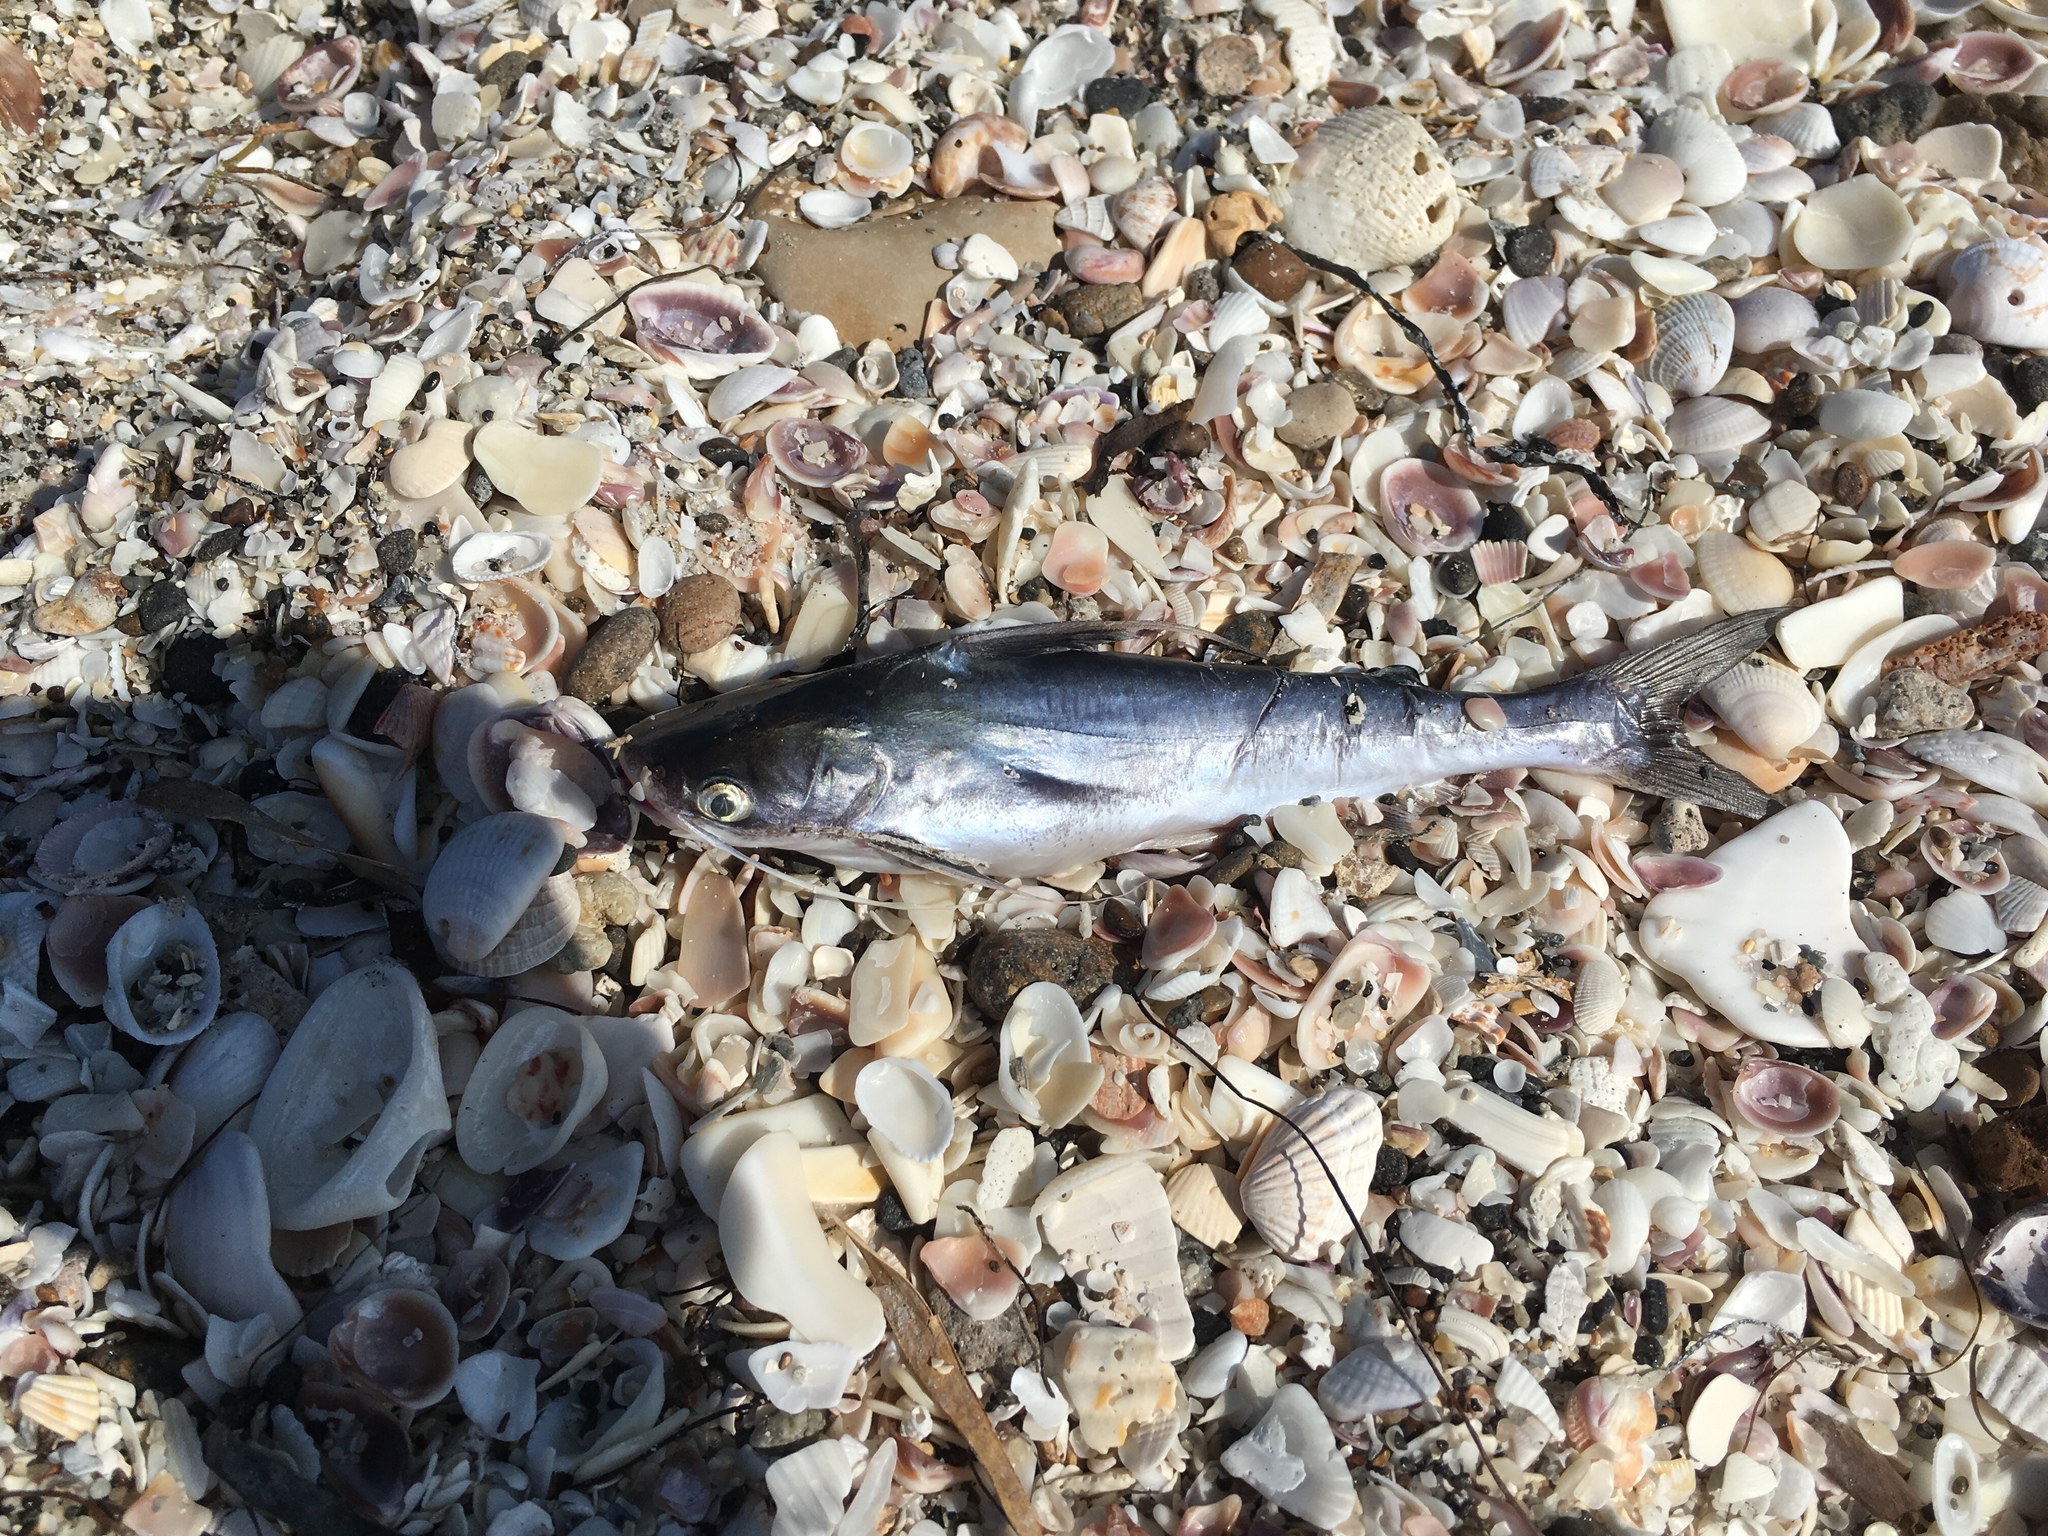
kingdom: Animalia
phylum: Chordata
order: Siluriformes
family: Ariidae
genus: Bagre
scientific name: Bagre marinus
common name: Gafftopsail sea catfish
